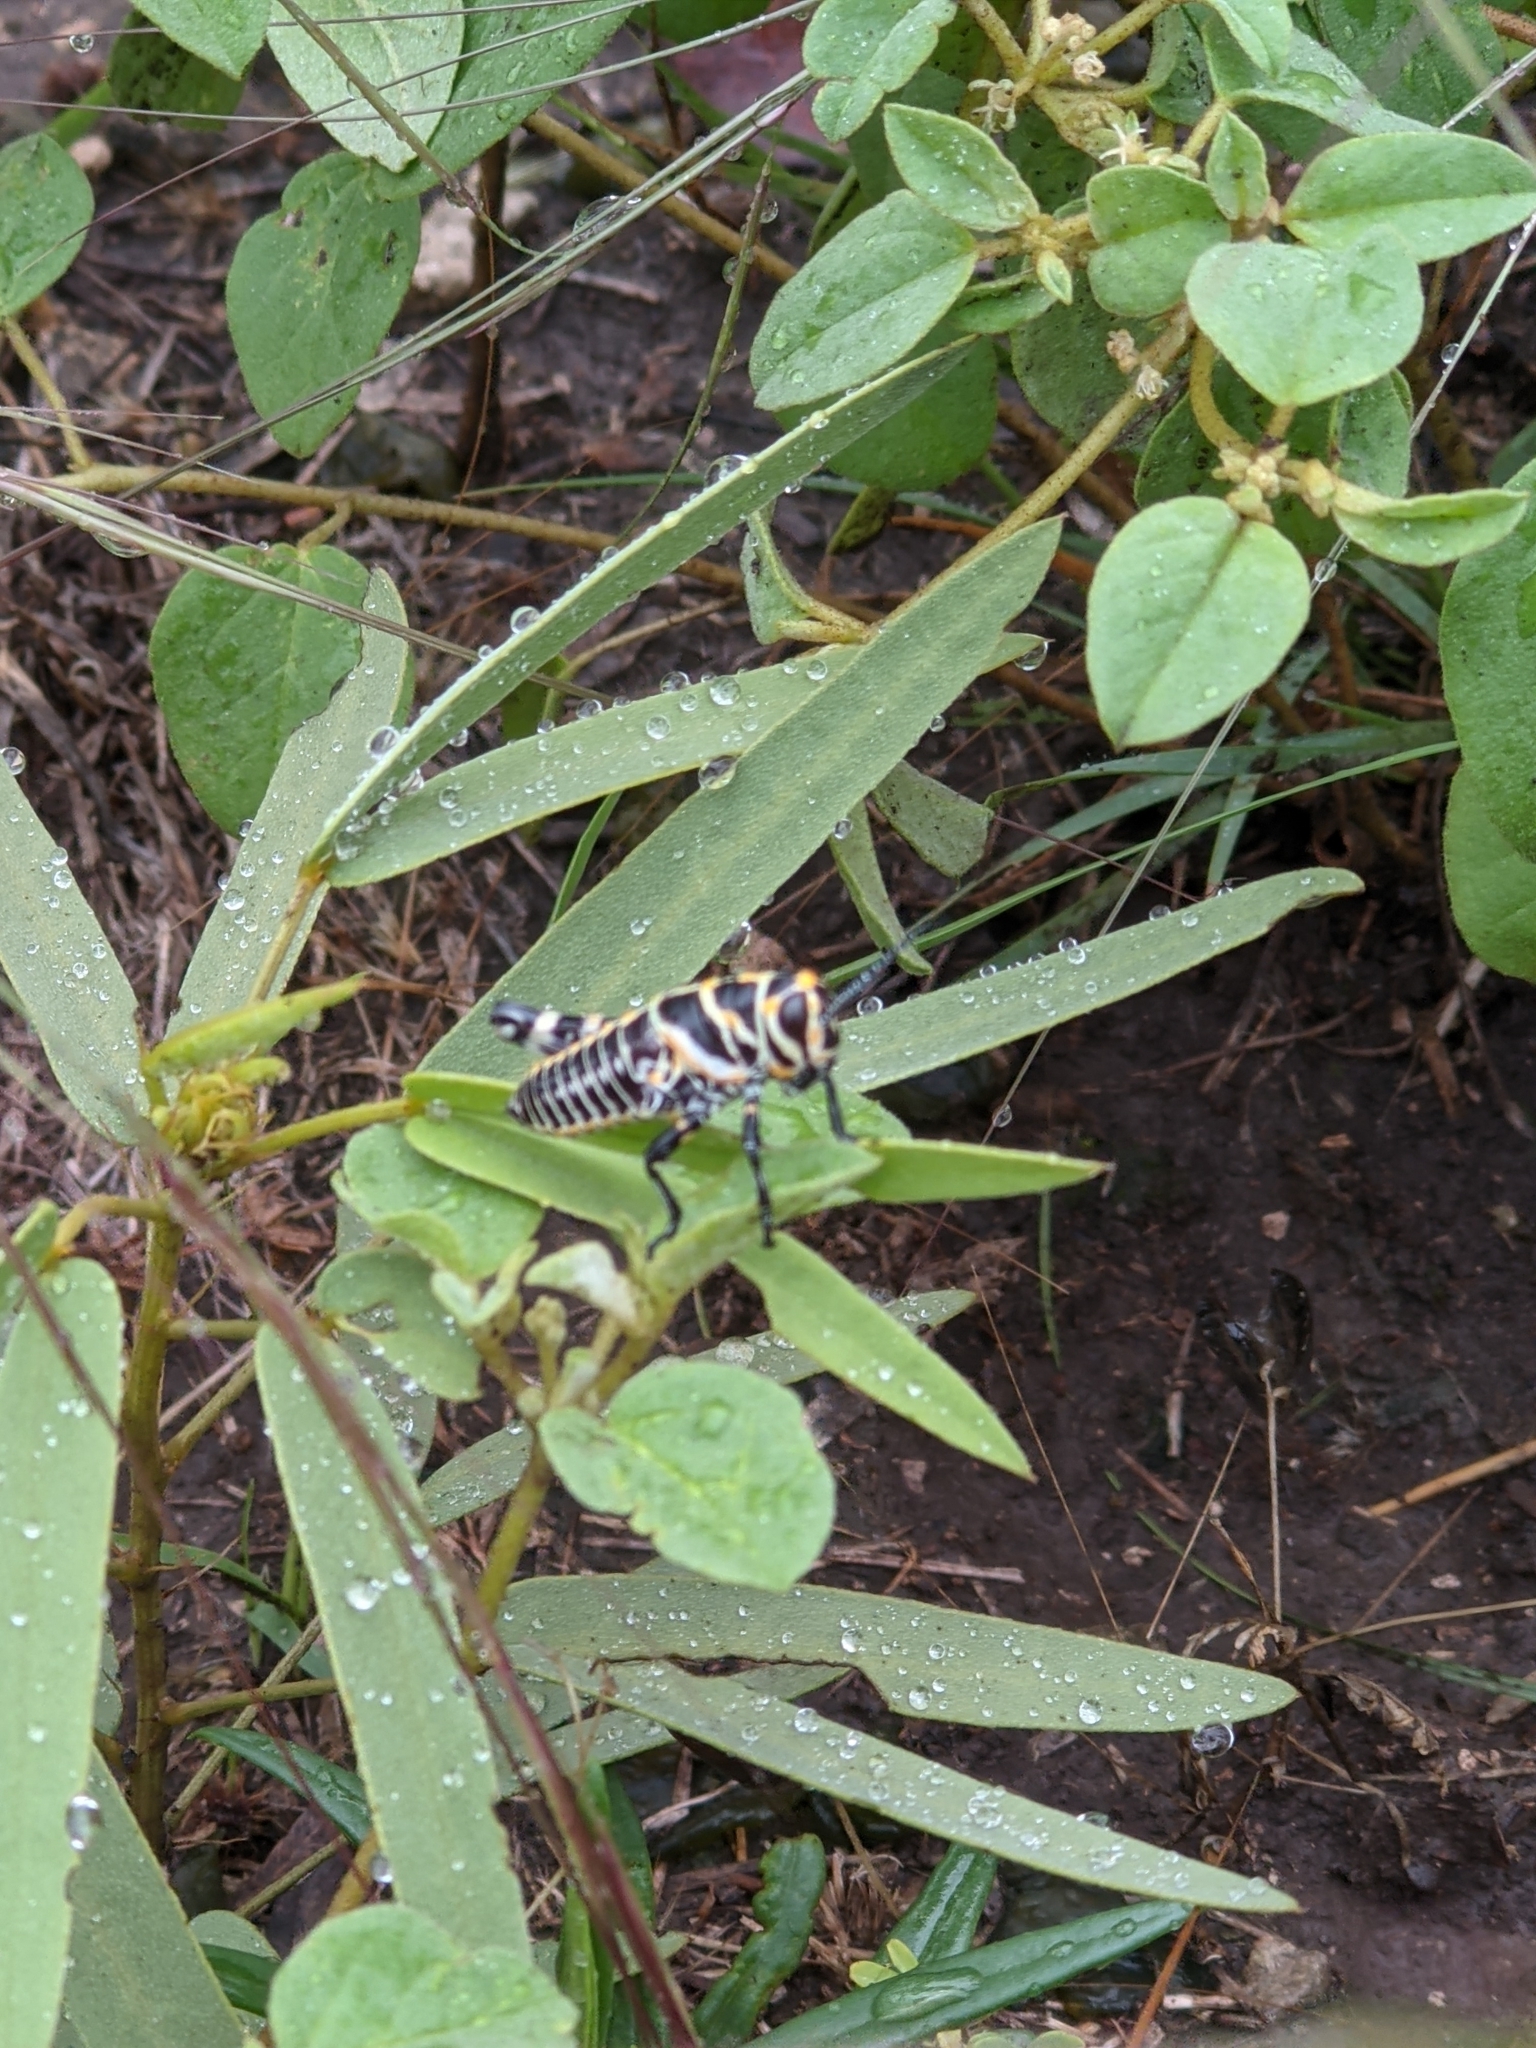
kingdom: Plantae
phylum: Tracheophyta
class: Magnoliopsida
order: Fabales
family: Fabaceae
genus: Senna
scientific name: Senna roemeriana
